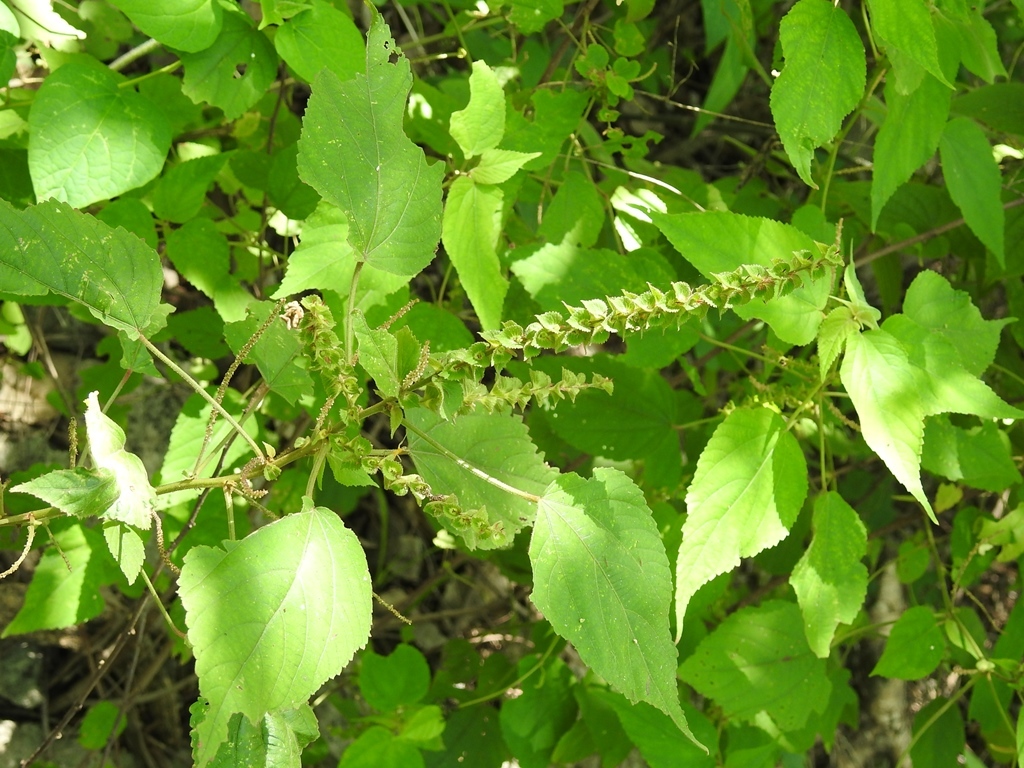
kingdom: Plantae
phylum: Tracheophyta
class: Magnoliopsida
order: Malpighiales
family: Euphorbiaceae
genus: Acalypha
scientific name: Acalypha macrostachya
